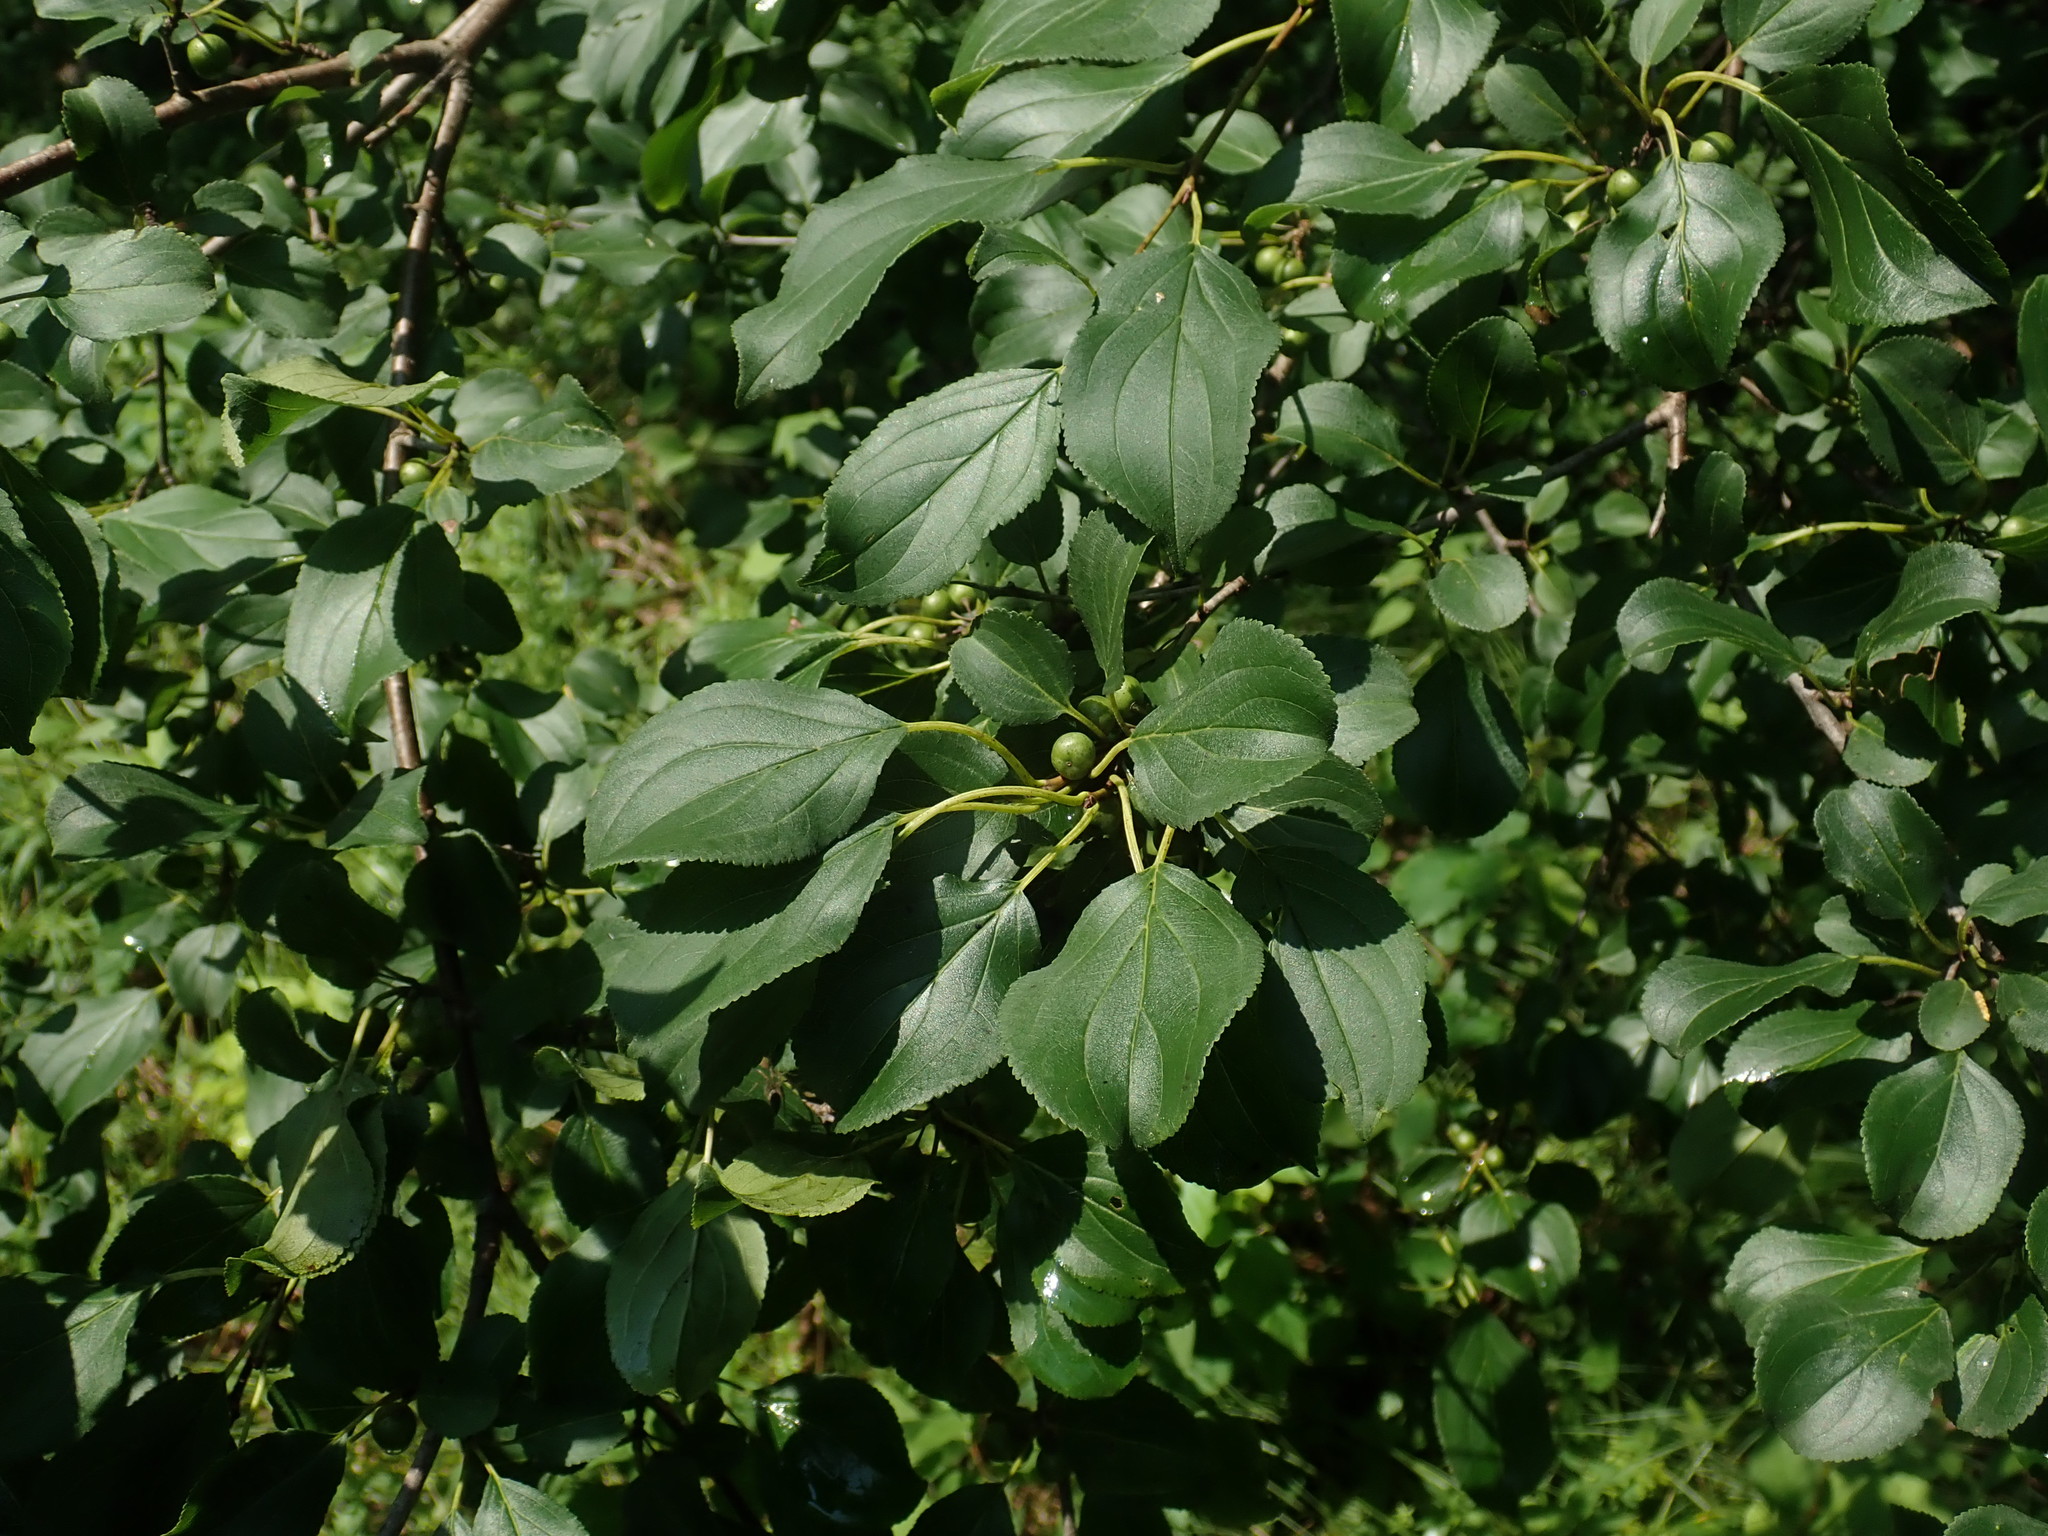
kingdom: Plantae
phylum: Tracheophyta
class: Magnoliopsida
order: Rosales
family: Rhamnaceae
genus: Rhamnus
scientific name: Rhamnus cathartica
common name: Common buckthorn
